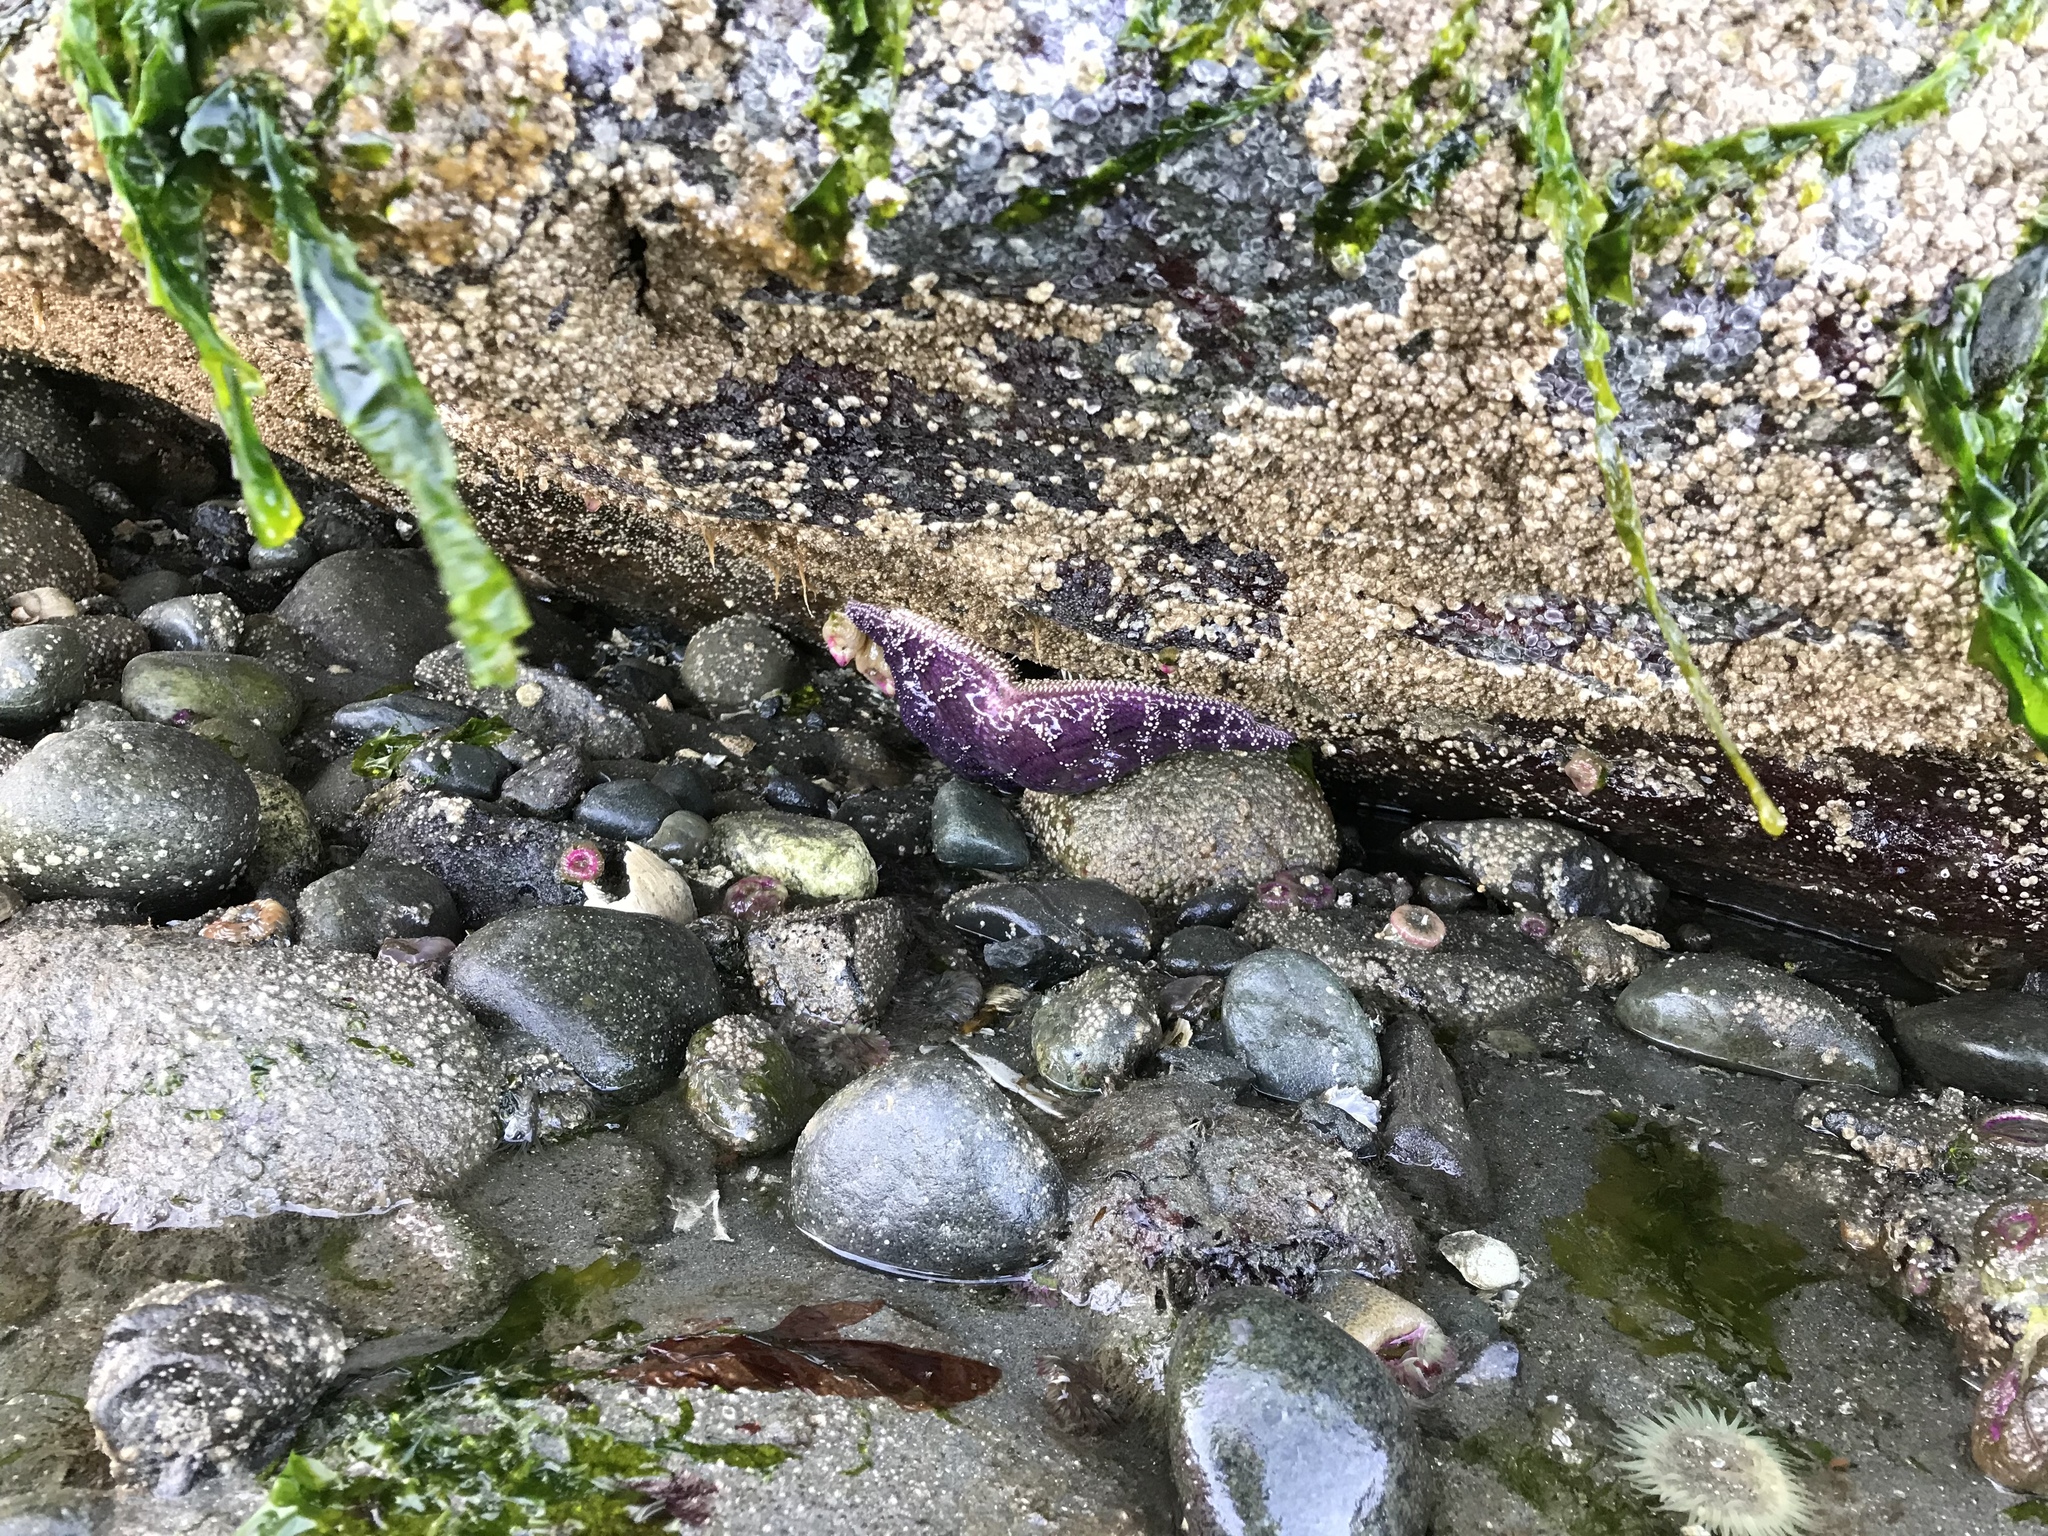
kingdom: Animalia
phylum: Echinodermata
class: Asteroidea
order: Forcipulatida
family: Asteriidae
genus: Pisaster
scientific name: Pisaster ochraceus
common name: Ochre stars
